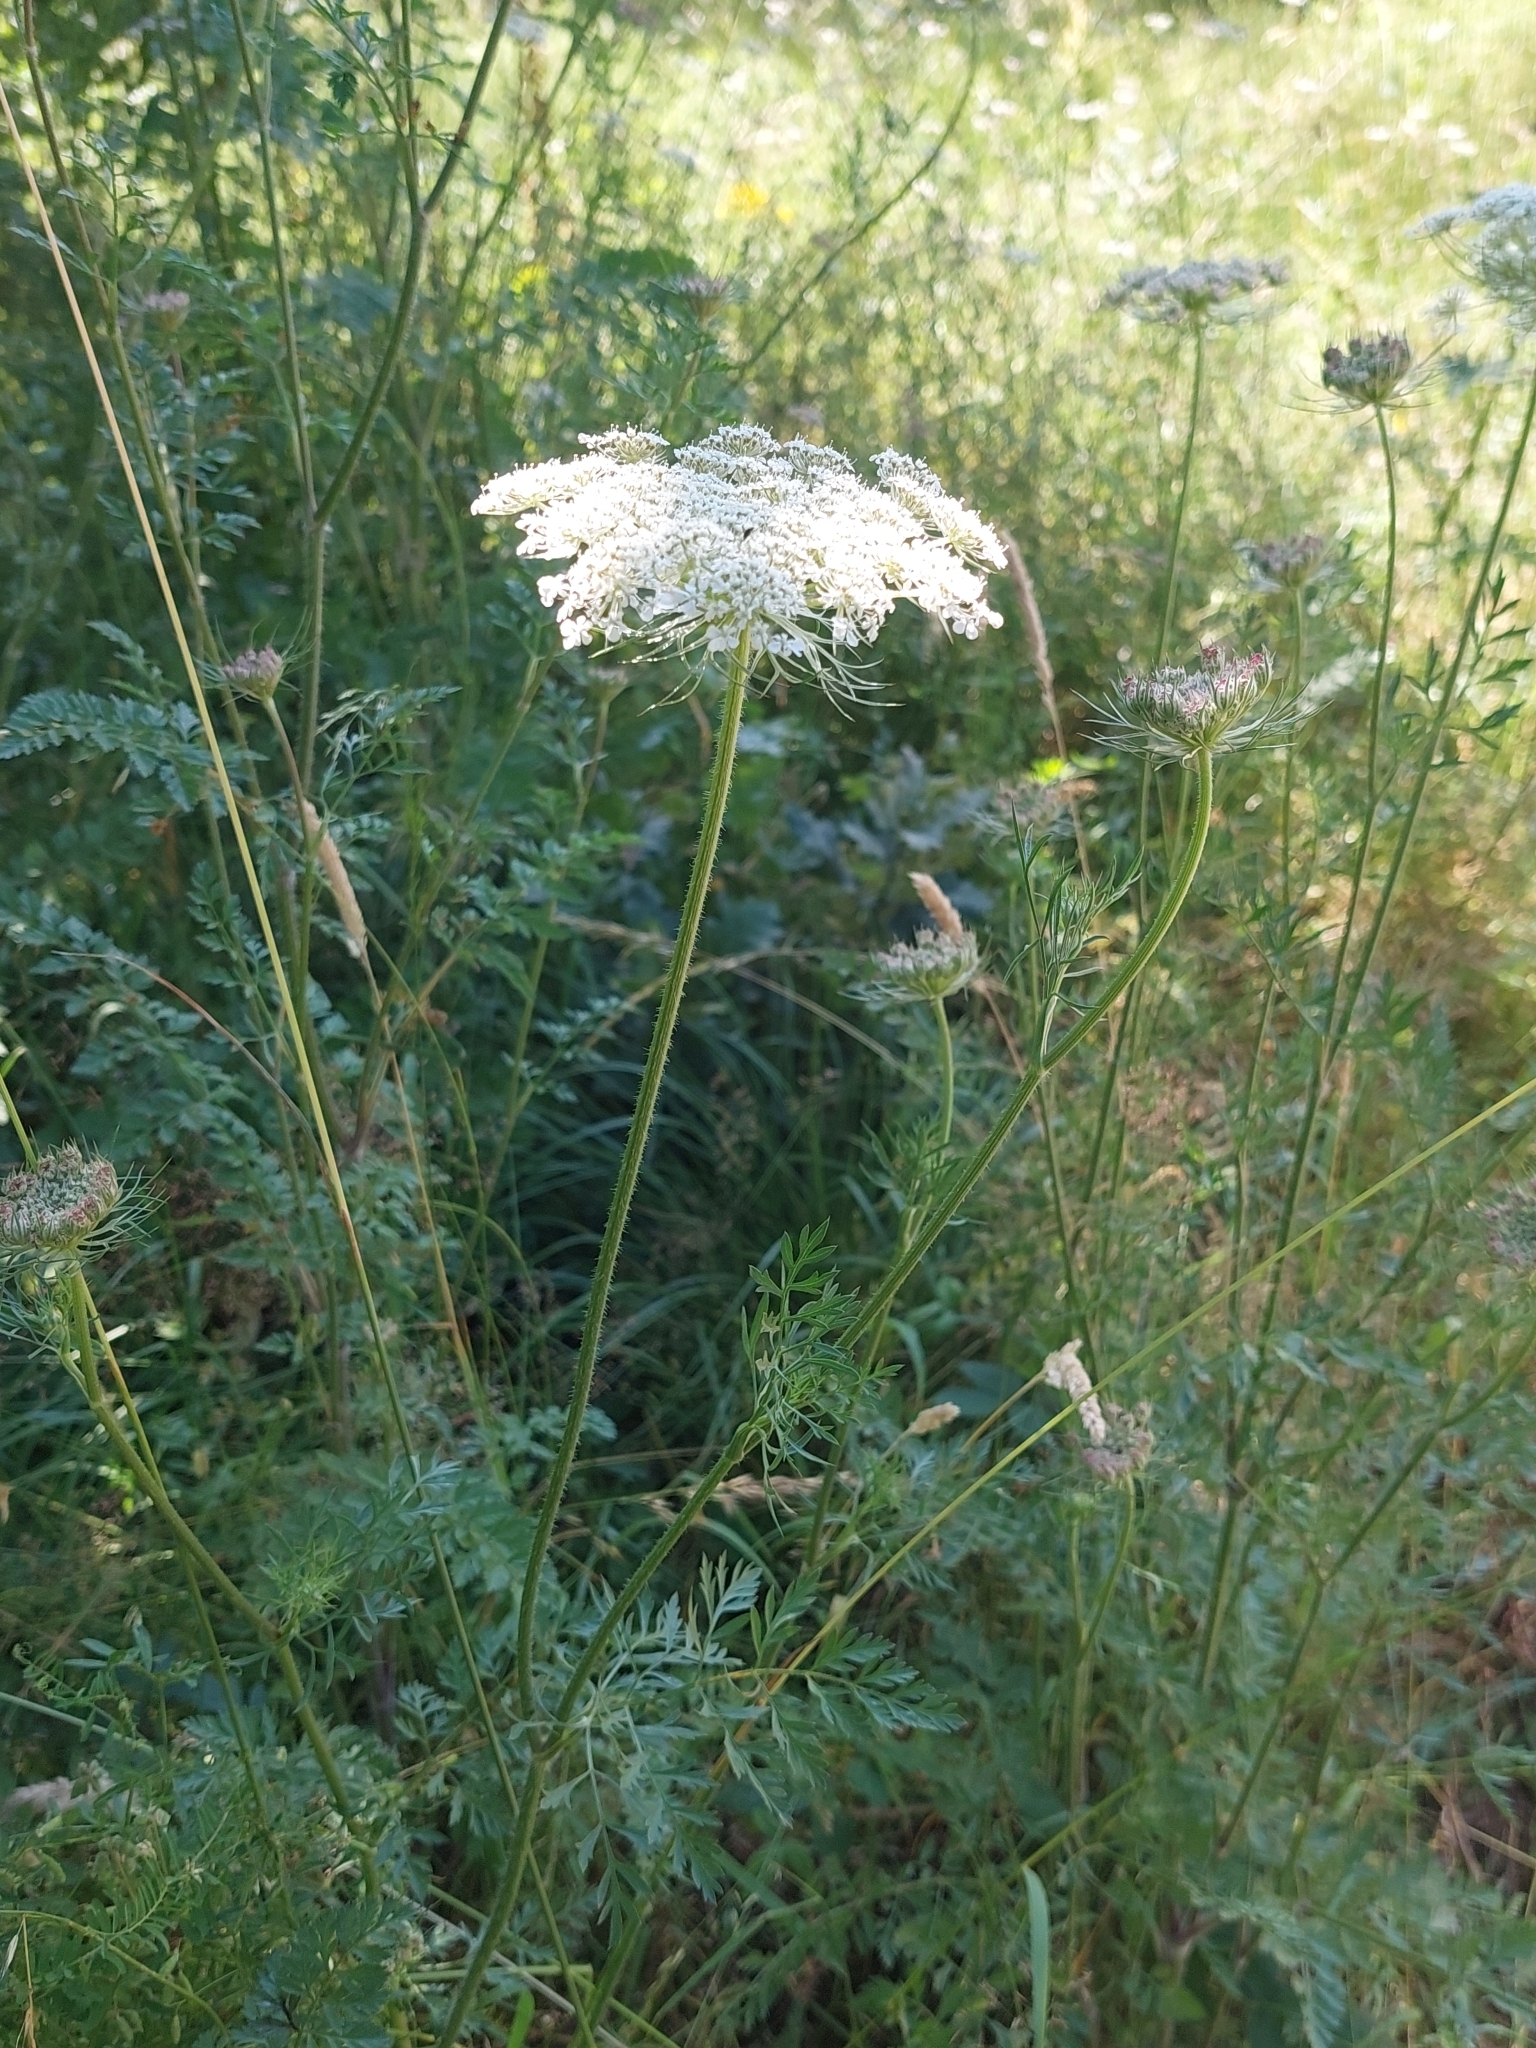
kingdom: Plantae
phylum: Tracheophyta
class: Magnoliopsida
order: Apiales
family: Apiaceae
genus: Daucus
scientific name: Daucus carota
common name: Wild carrot
